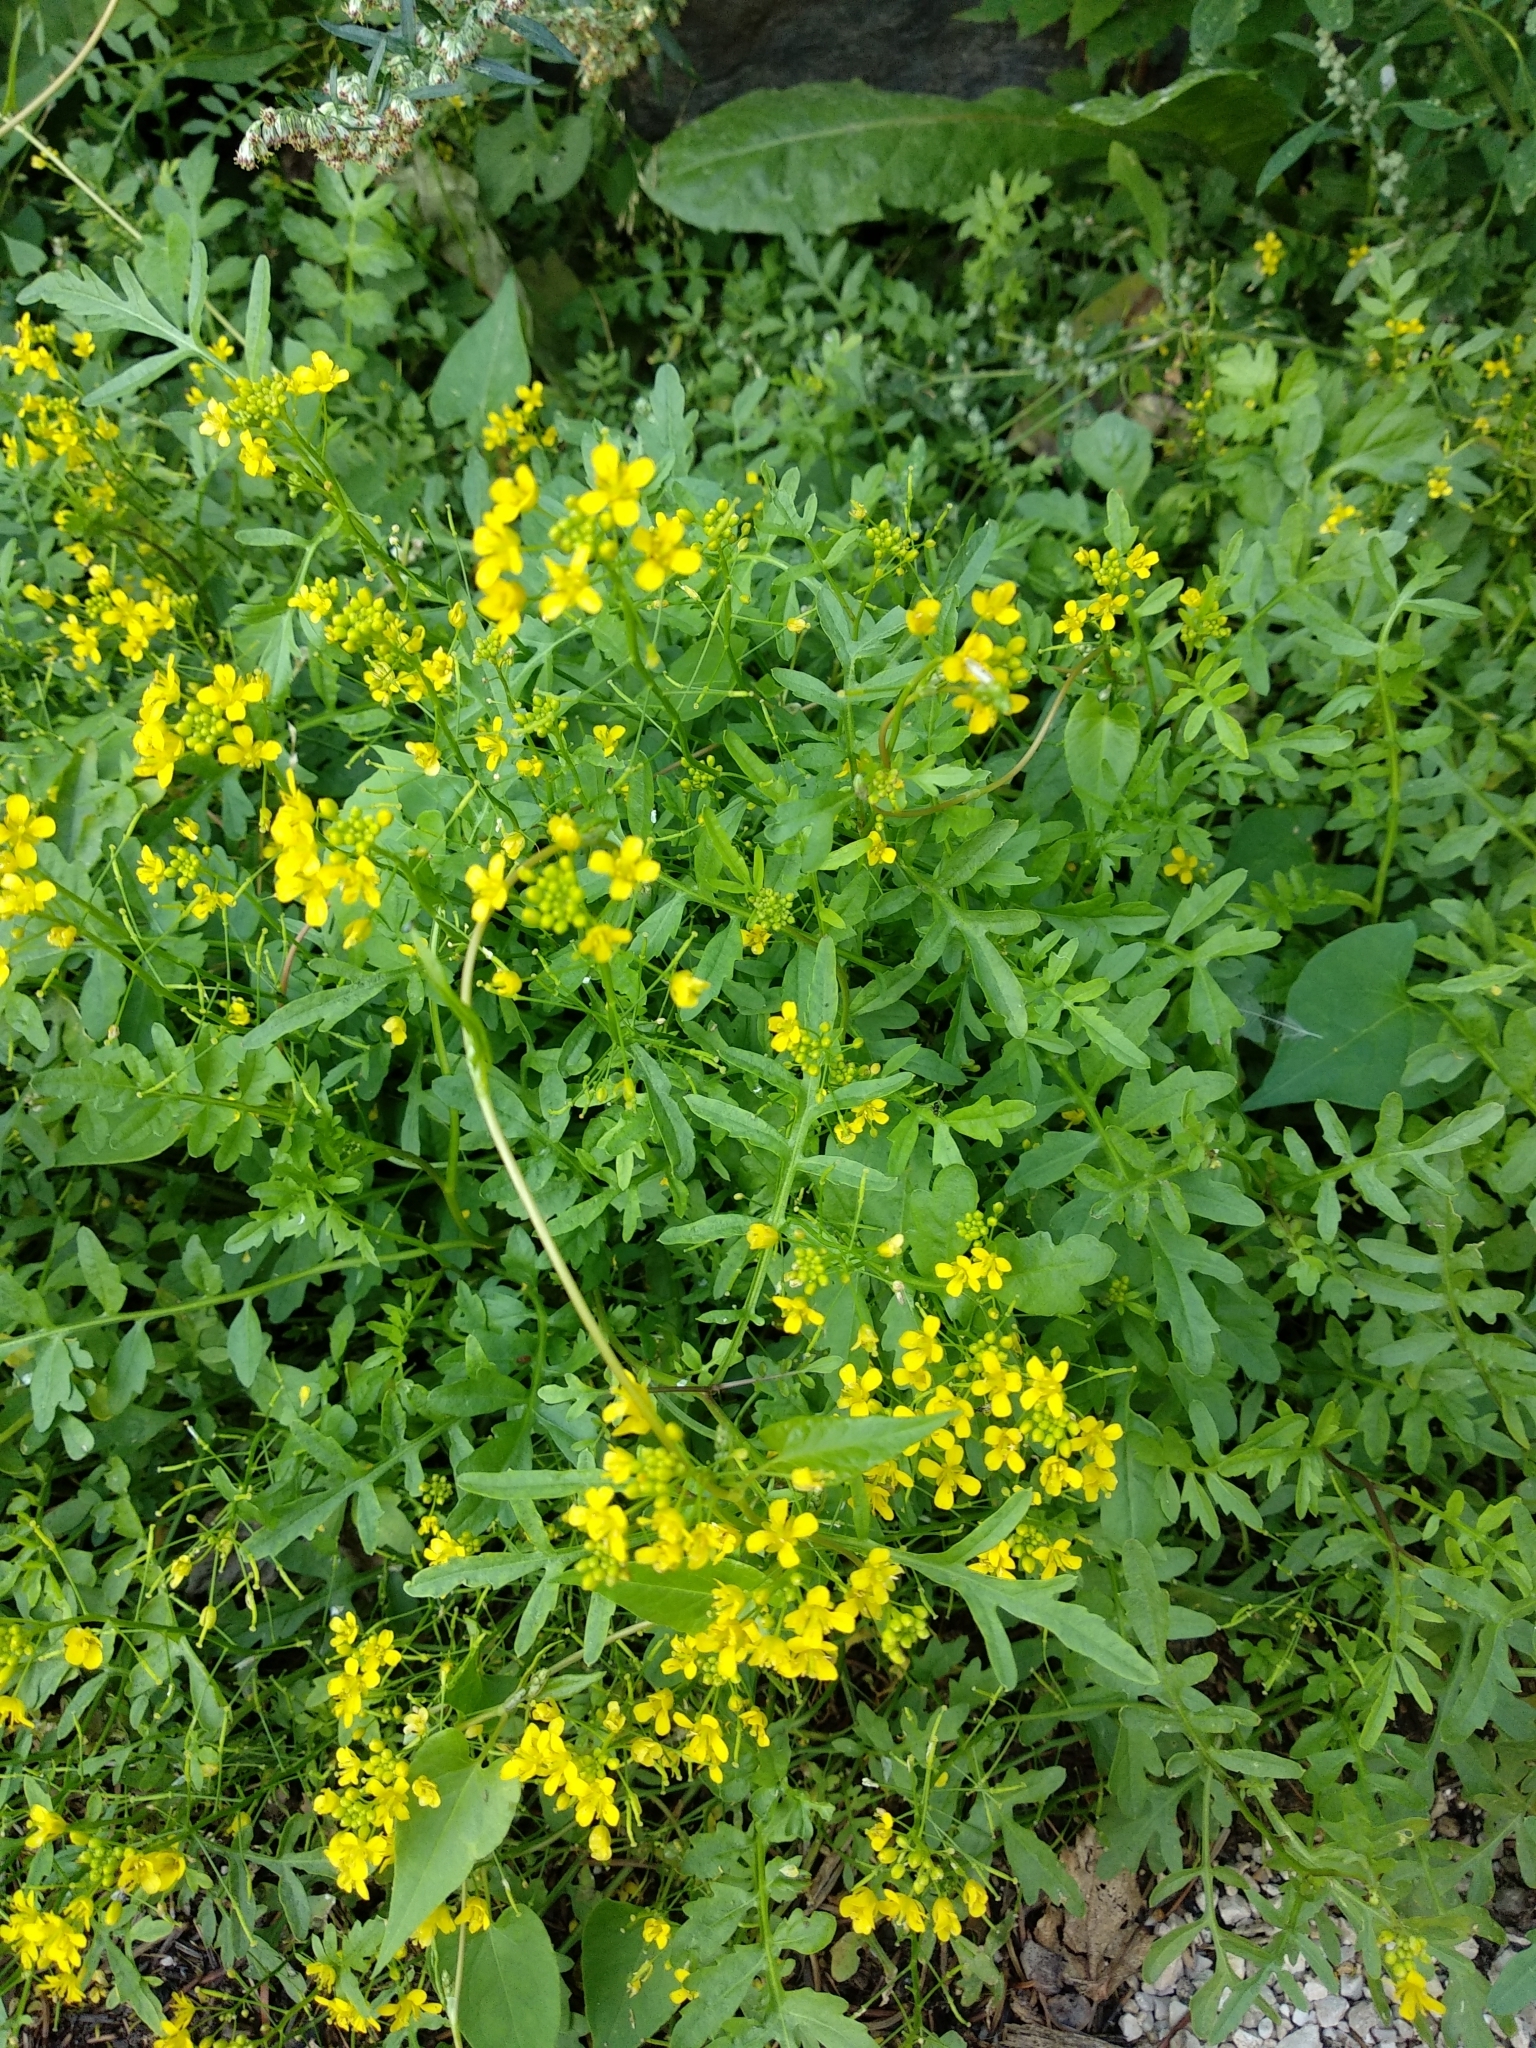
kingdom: Plantae
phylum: Tracheophyta
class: Magnoliopsida
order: Brassicales
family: Brassicaceae
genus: Rorippa
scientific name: Rorippa sylvestris
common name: Creeping yellowcress
